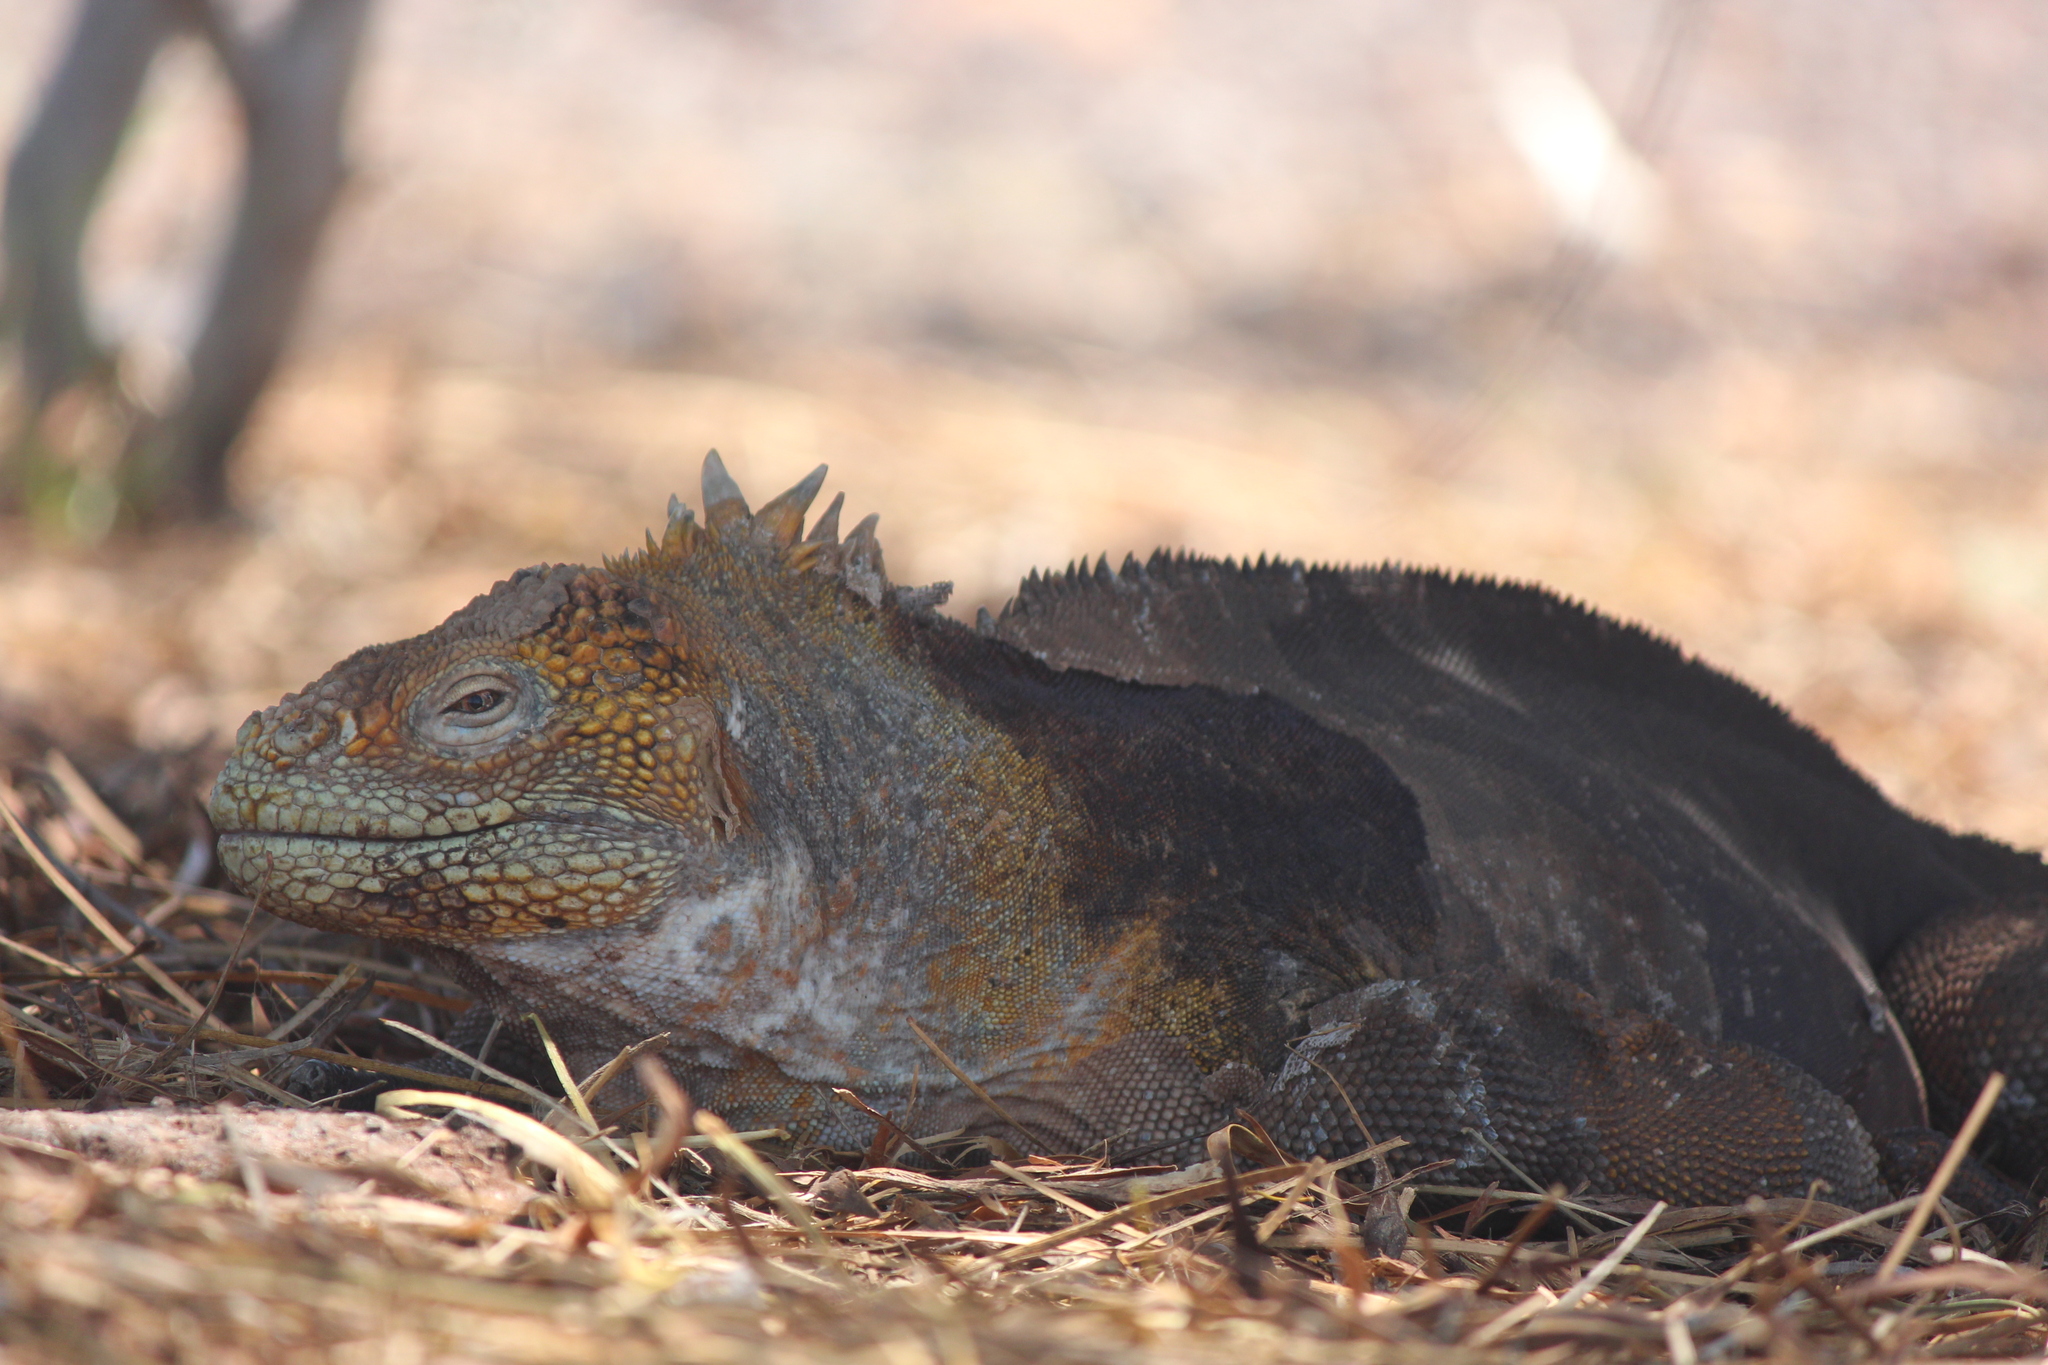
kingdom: Animalia
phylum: Chordata
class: Squamata
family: Iguanidae
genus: Conolophus
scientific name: Conolophus subcristatus
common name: Galapagos land iguana
